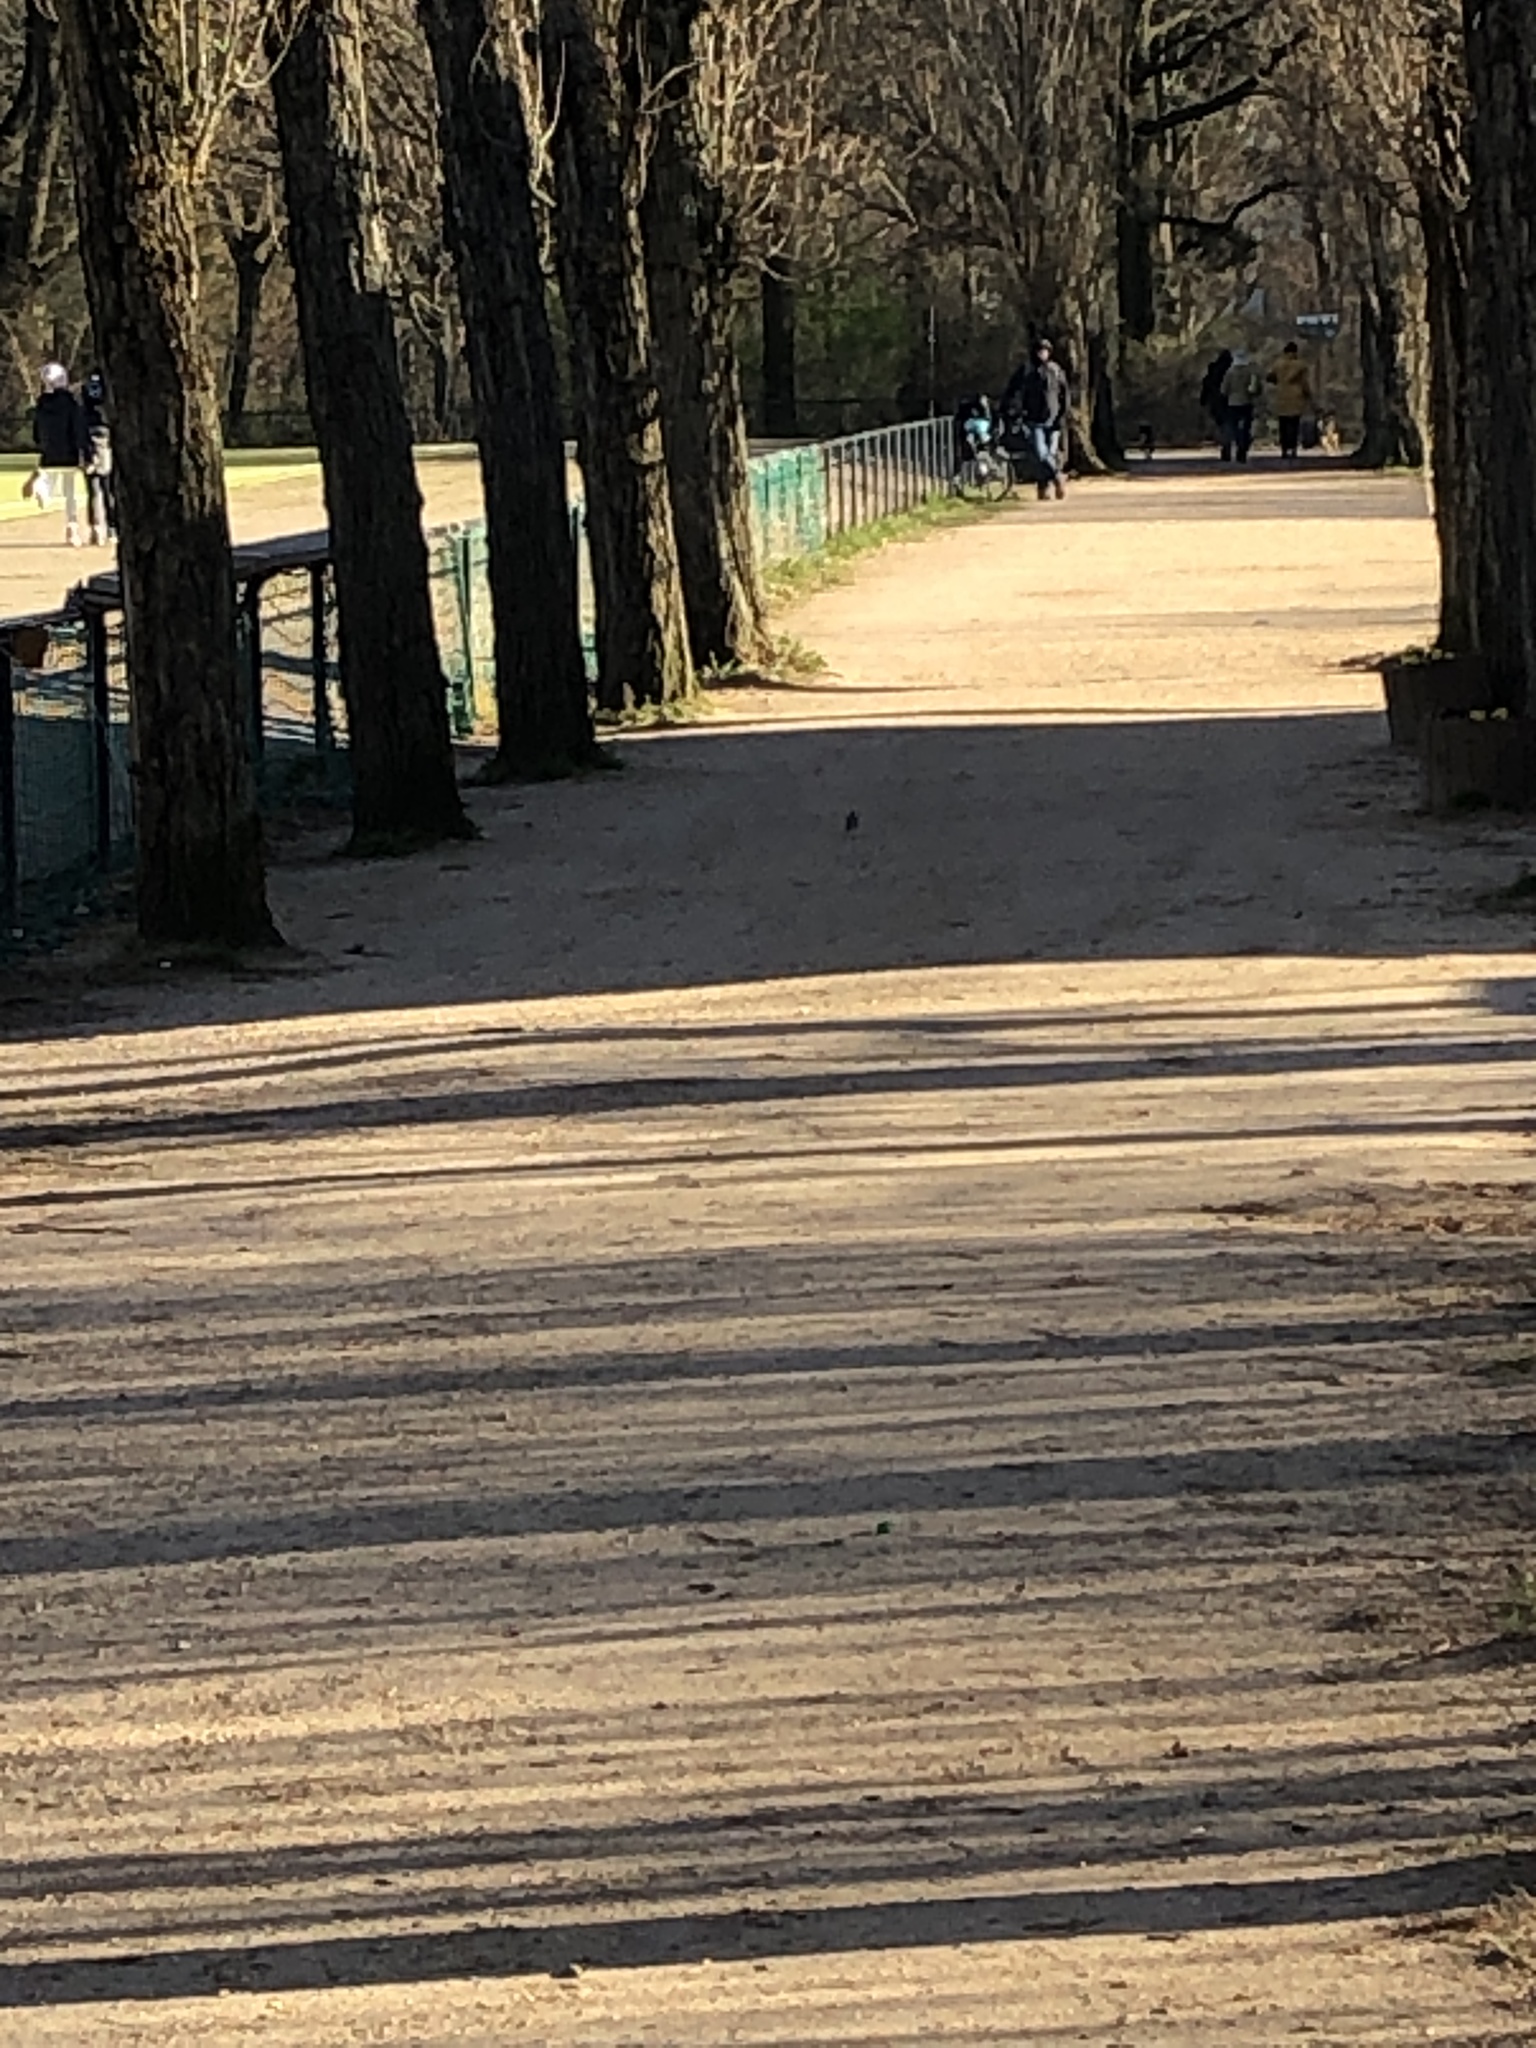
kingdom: Animalia
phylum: Chordata
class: Aves
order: Passeriformes
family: Motacillidae
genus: Motacilla
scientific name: Motacilla alba
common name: White wagtail
